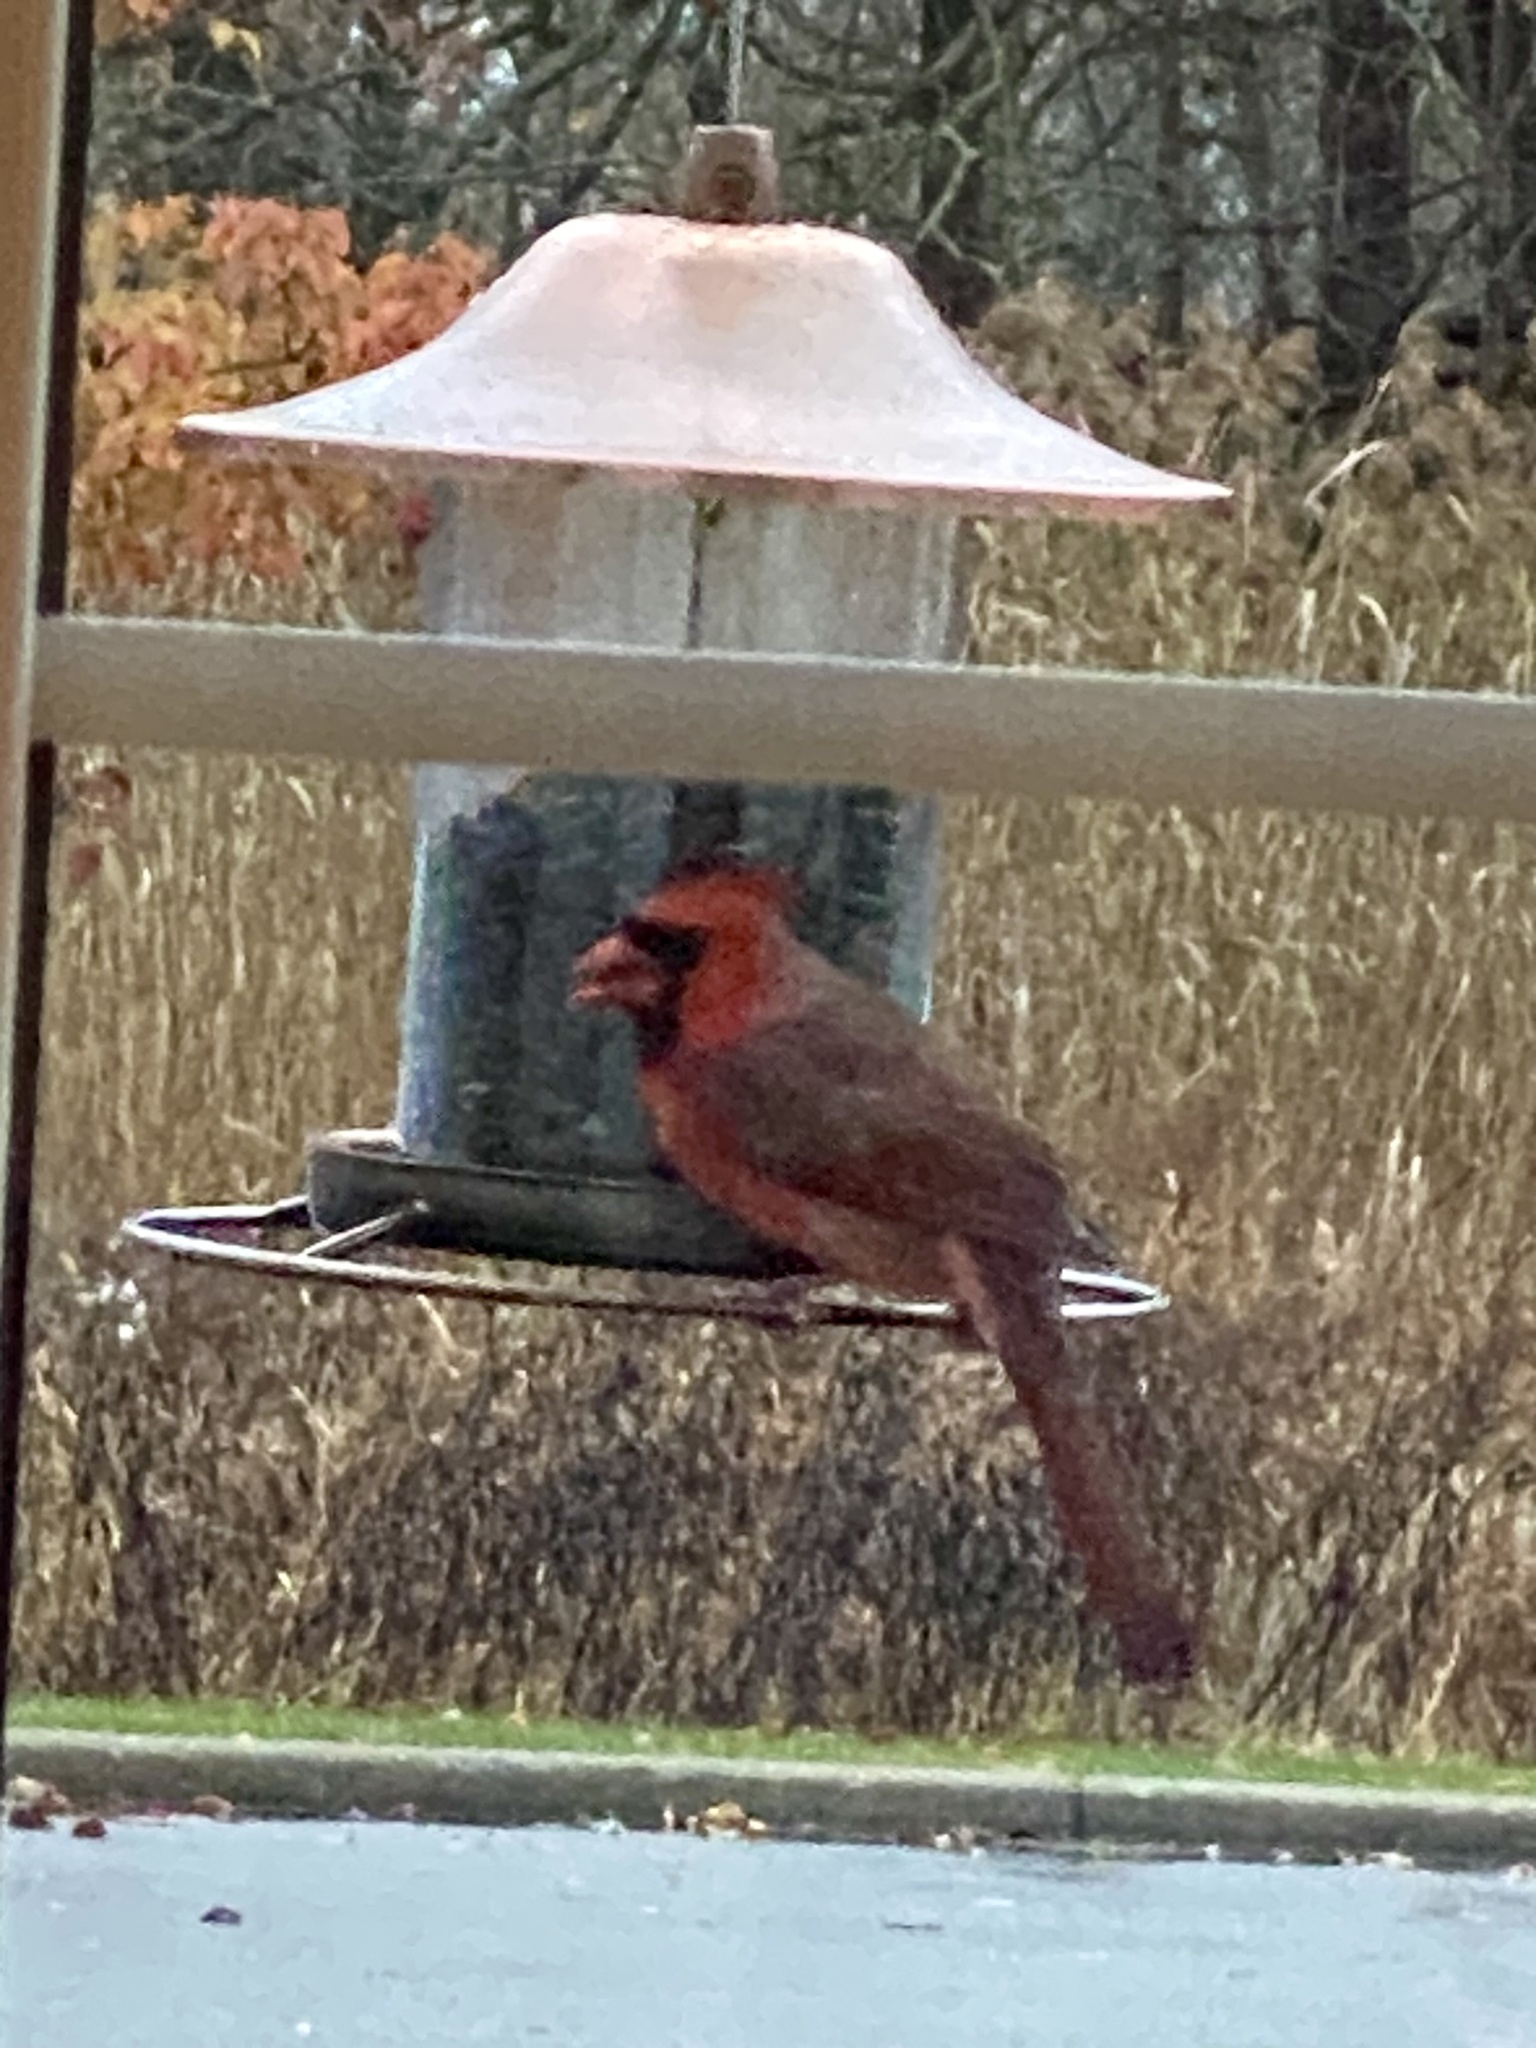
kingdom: Animalia
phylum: Chordata
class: Aves
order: Passeriformes
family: Cardinalidae
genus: Cardinalis
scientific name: Cardinalis cardinalis
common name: Northern cardinal
